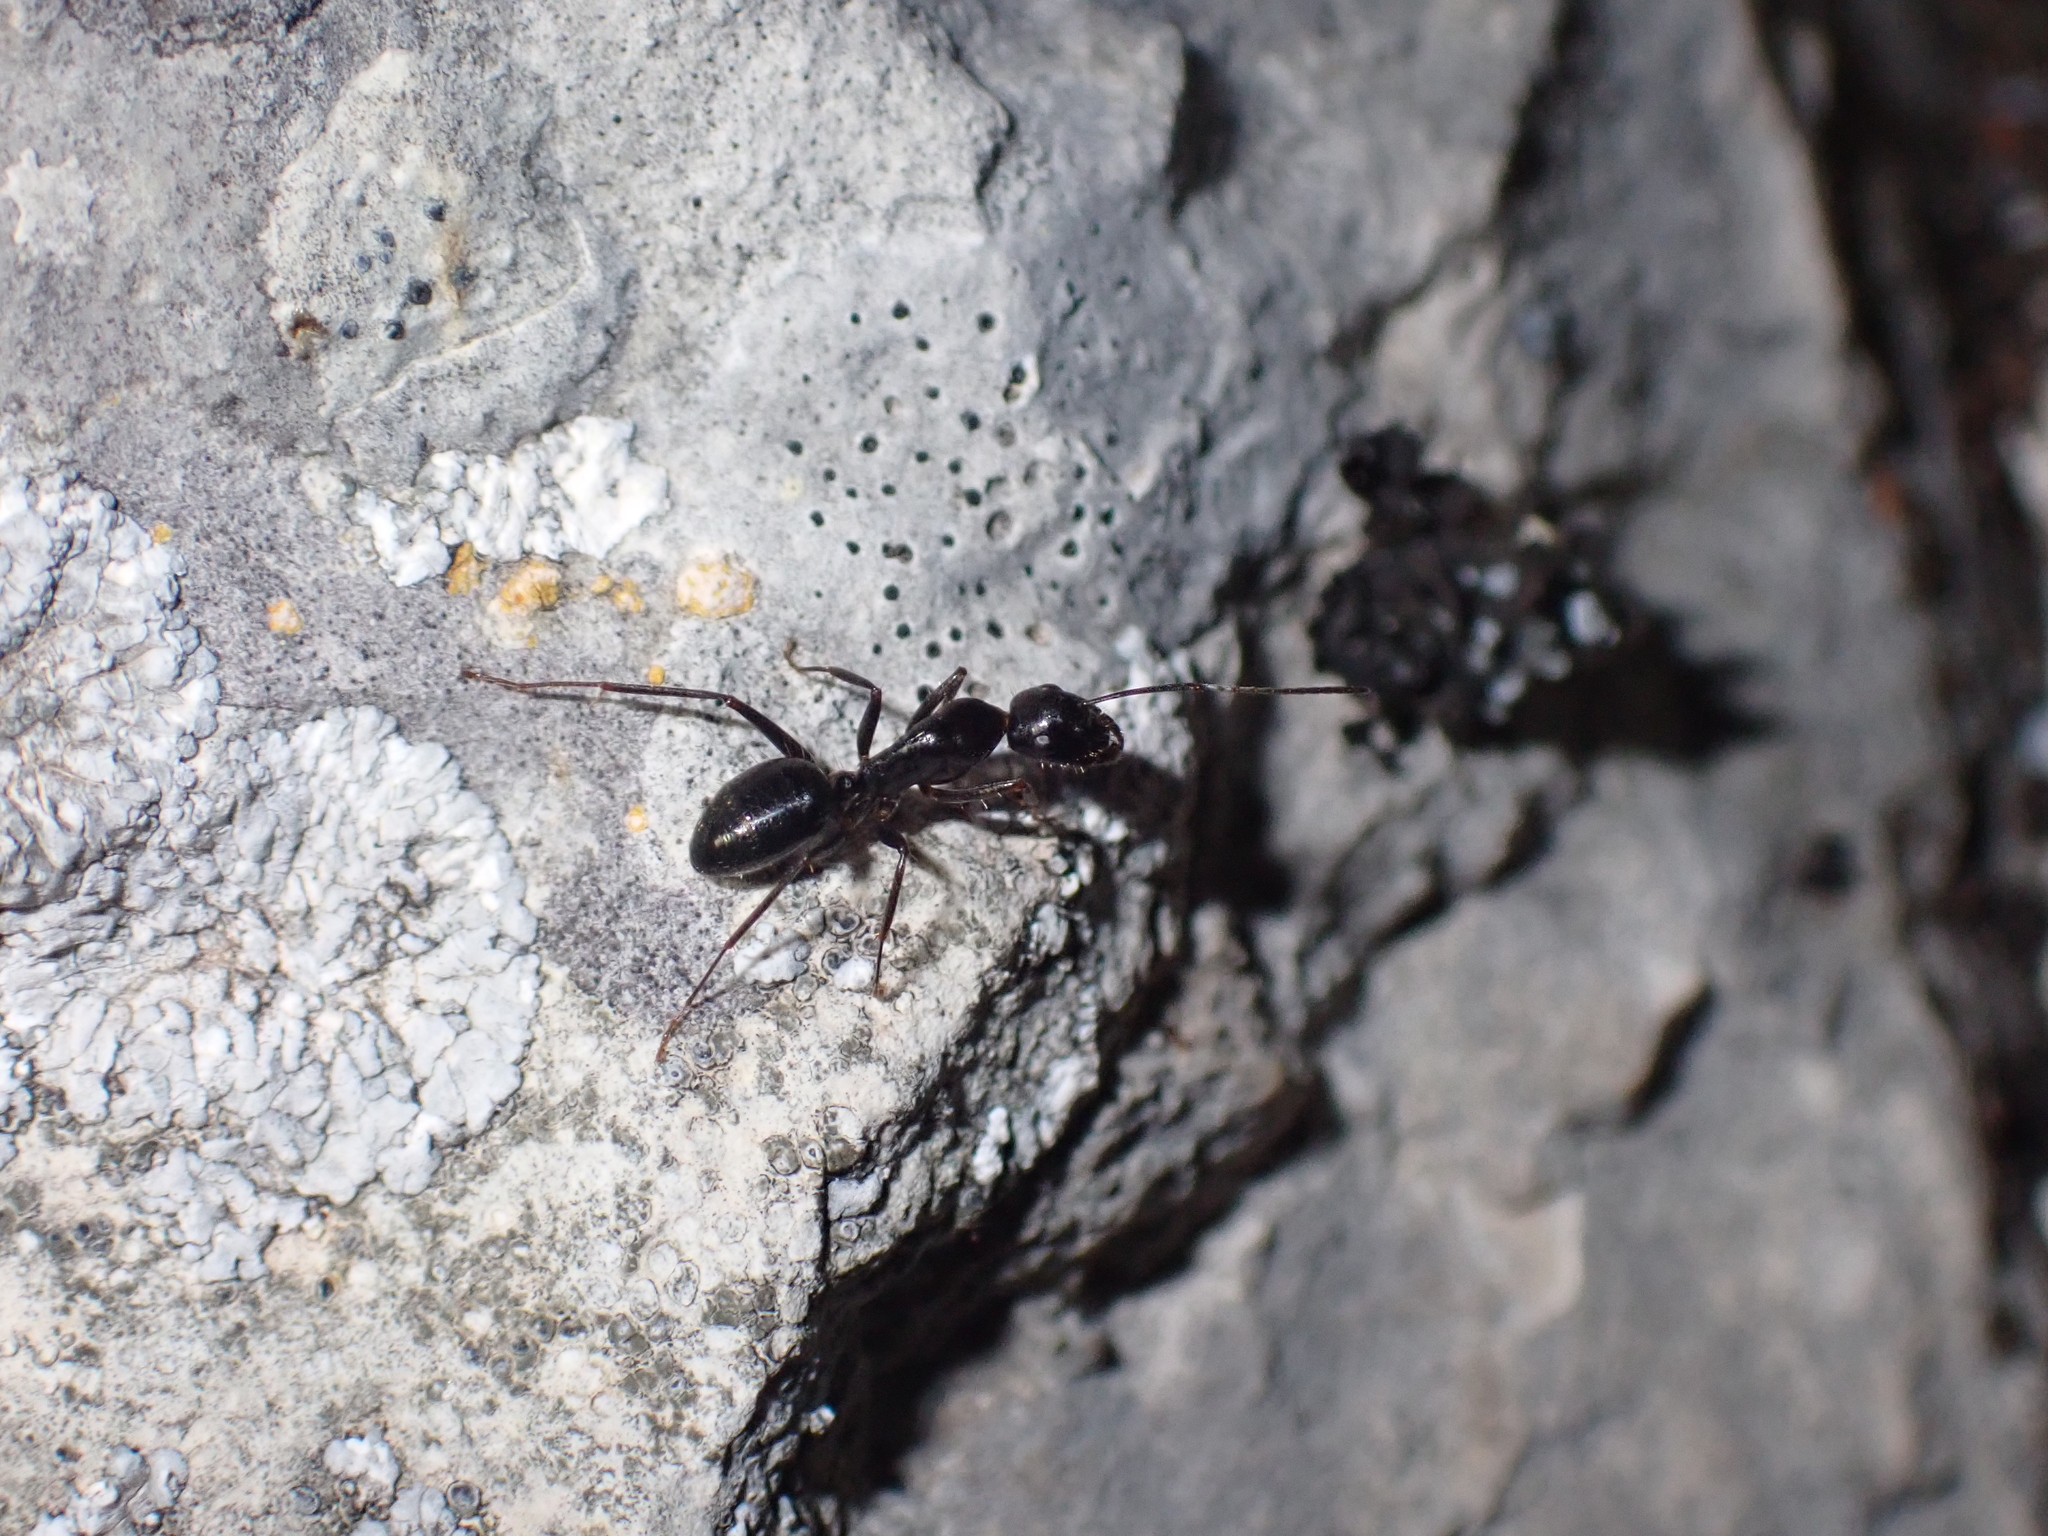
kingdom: Animalia
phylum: Arthropoda
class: Insecta
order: Hymenoptera
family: Formicidae
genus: Camponotus
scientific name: Camponotus aethiops
